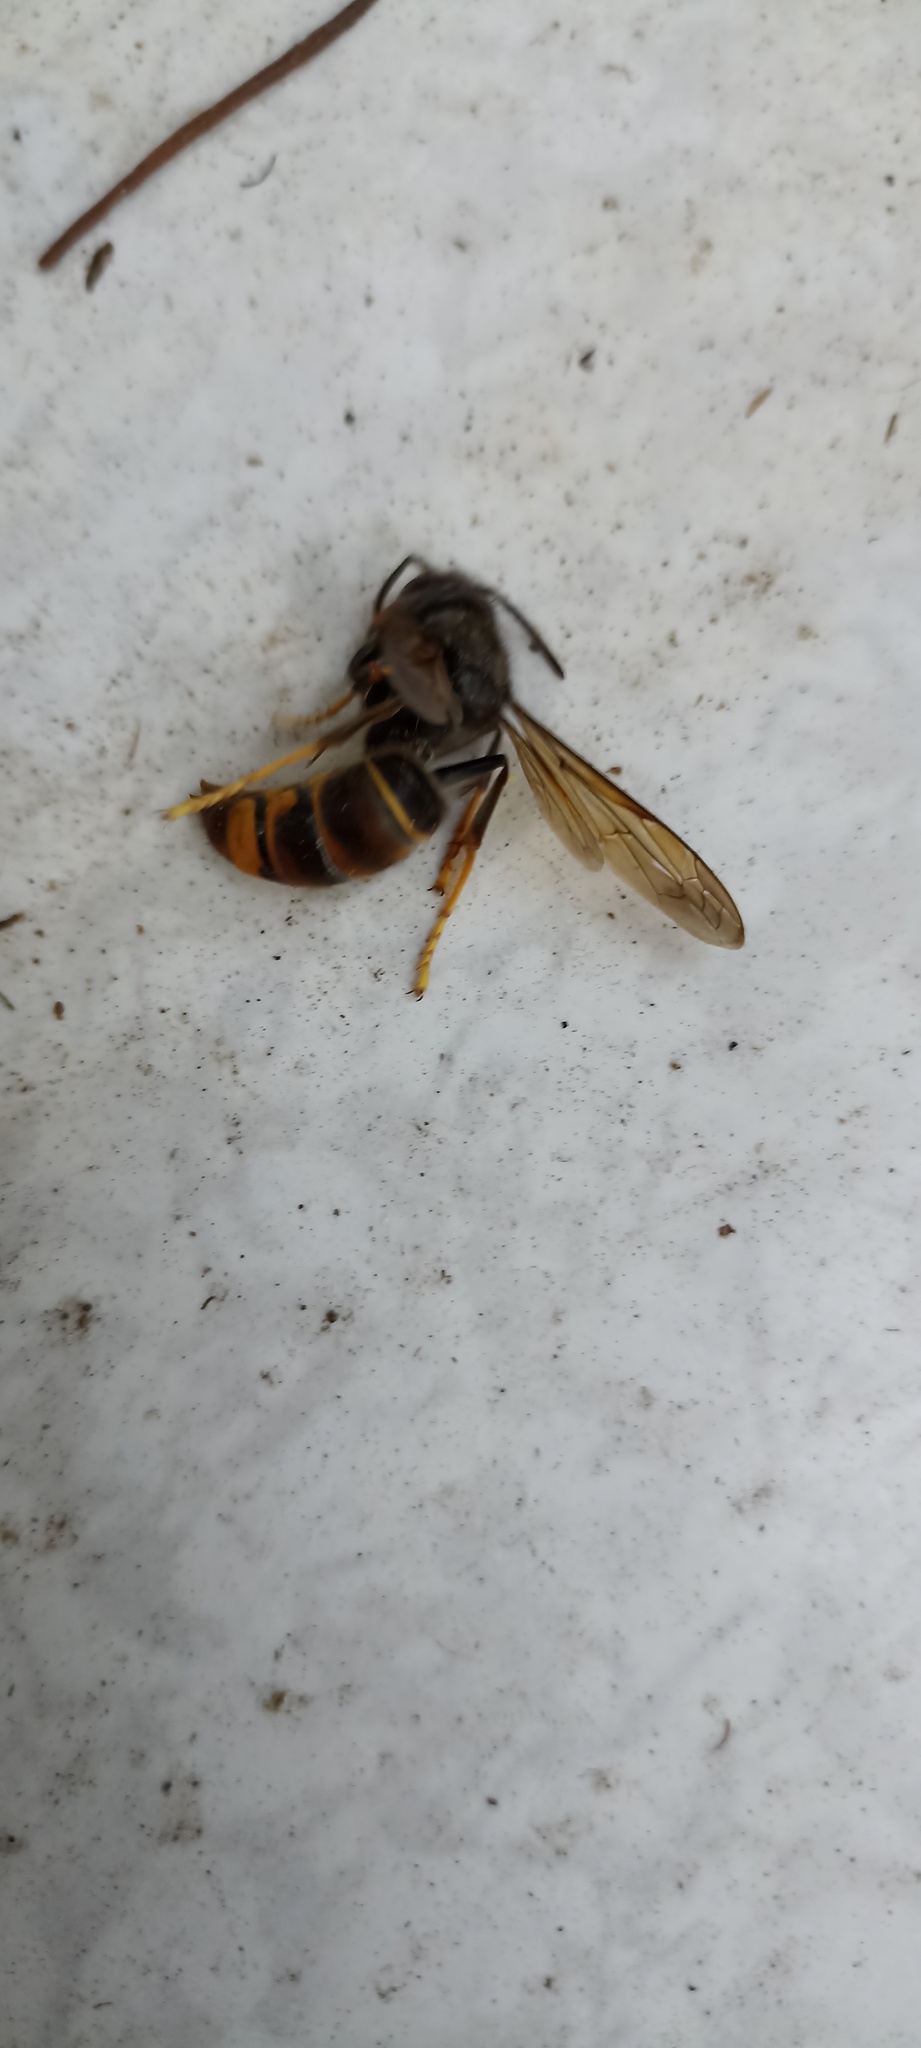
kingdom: Animalia
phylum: Arthropoda
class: Insecta
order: Hymenoptera
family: Vespidae
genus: Vespa
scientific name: Vespa velutina
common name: Asian hornet
